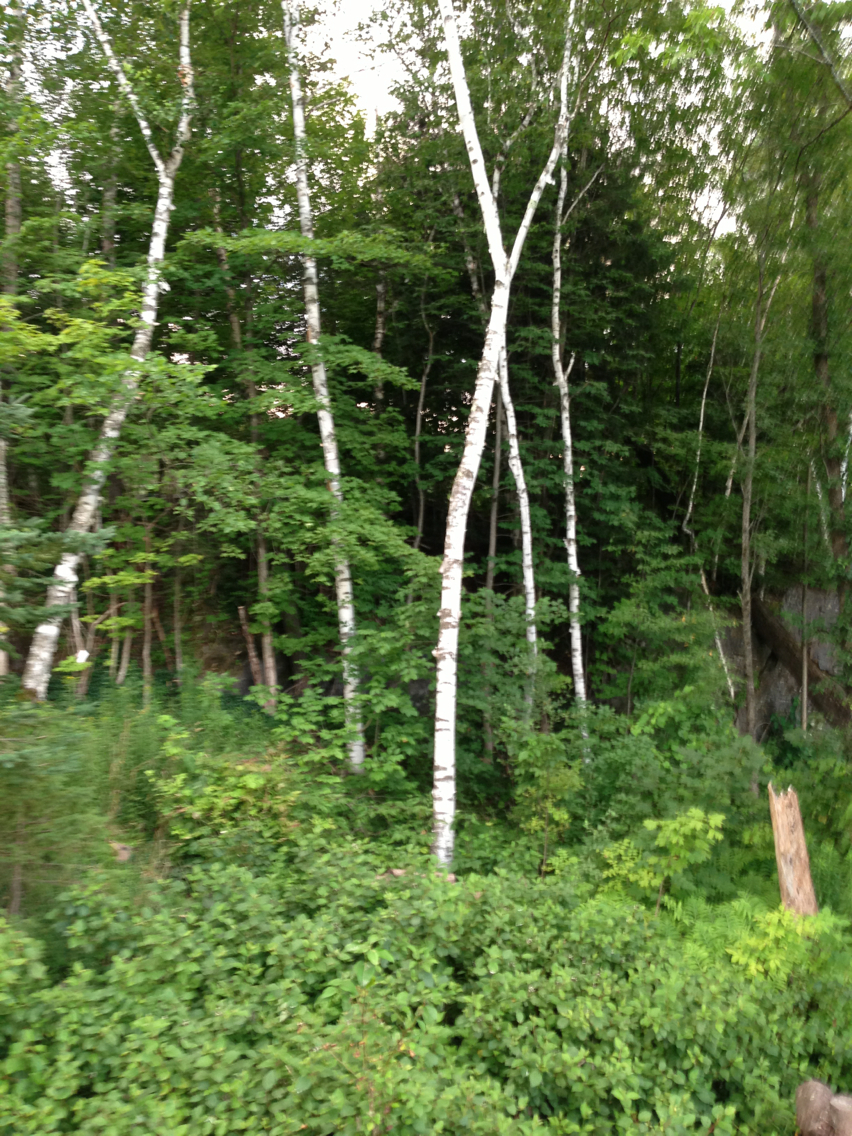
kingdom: Plantae
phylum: Tracheophyta
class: Magnoliopsida
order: Fagales
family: Betulaceae
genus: Betula
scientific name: Betula papyrifera
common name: Paper birch
